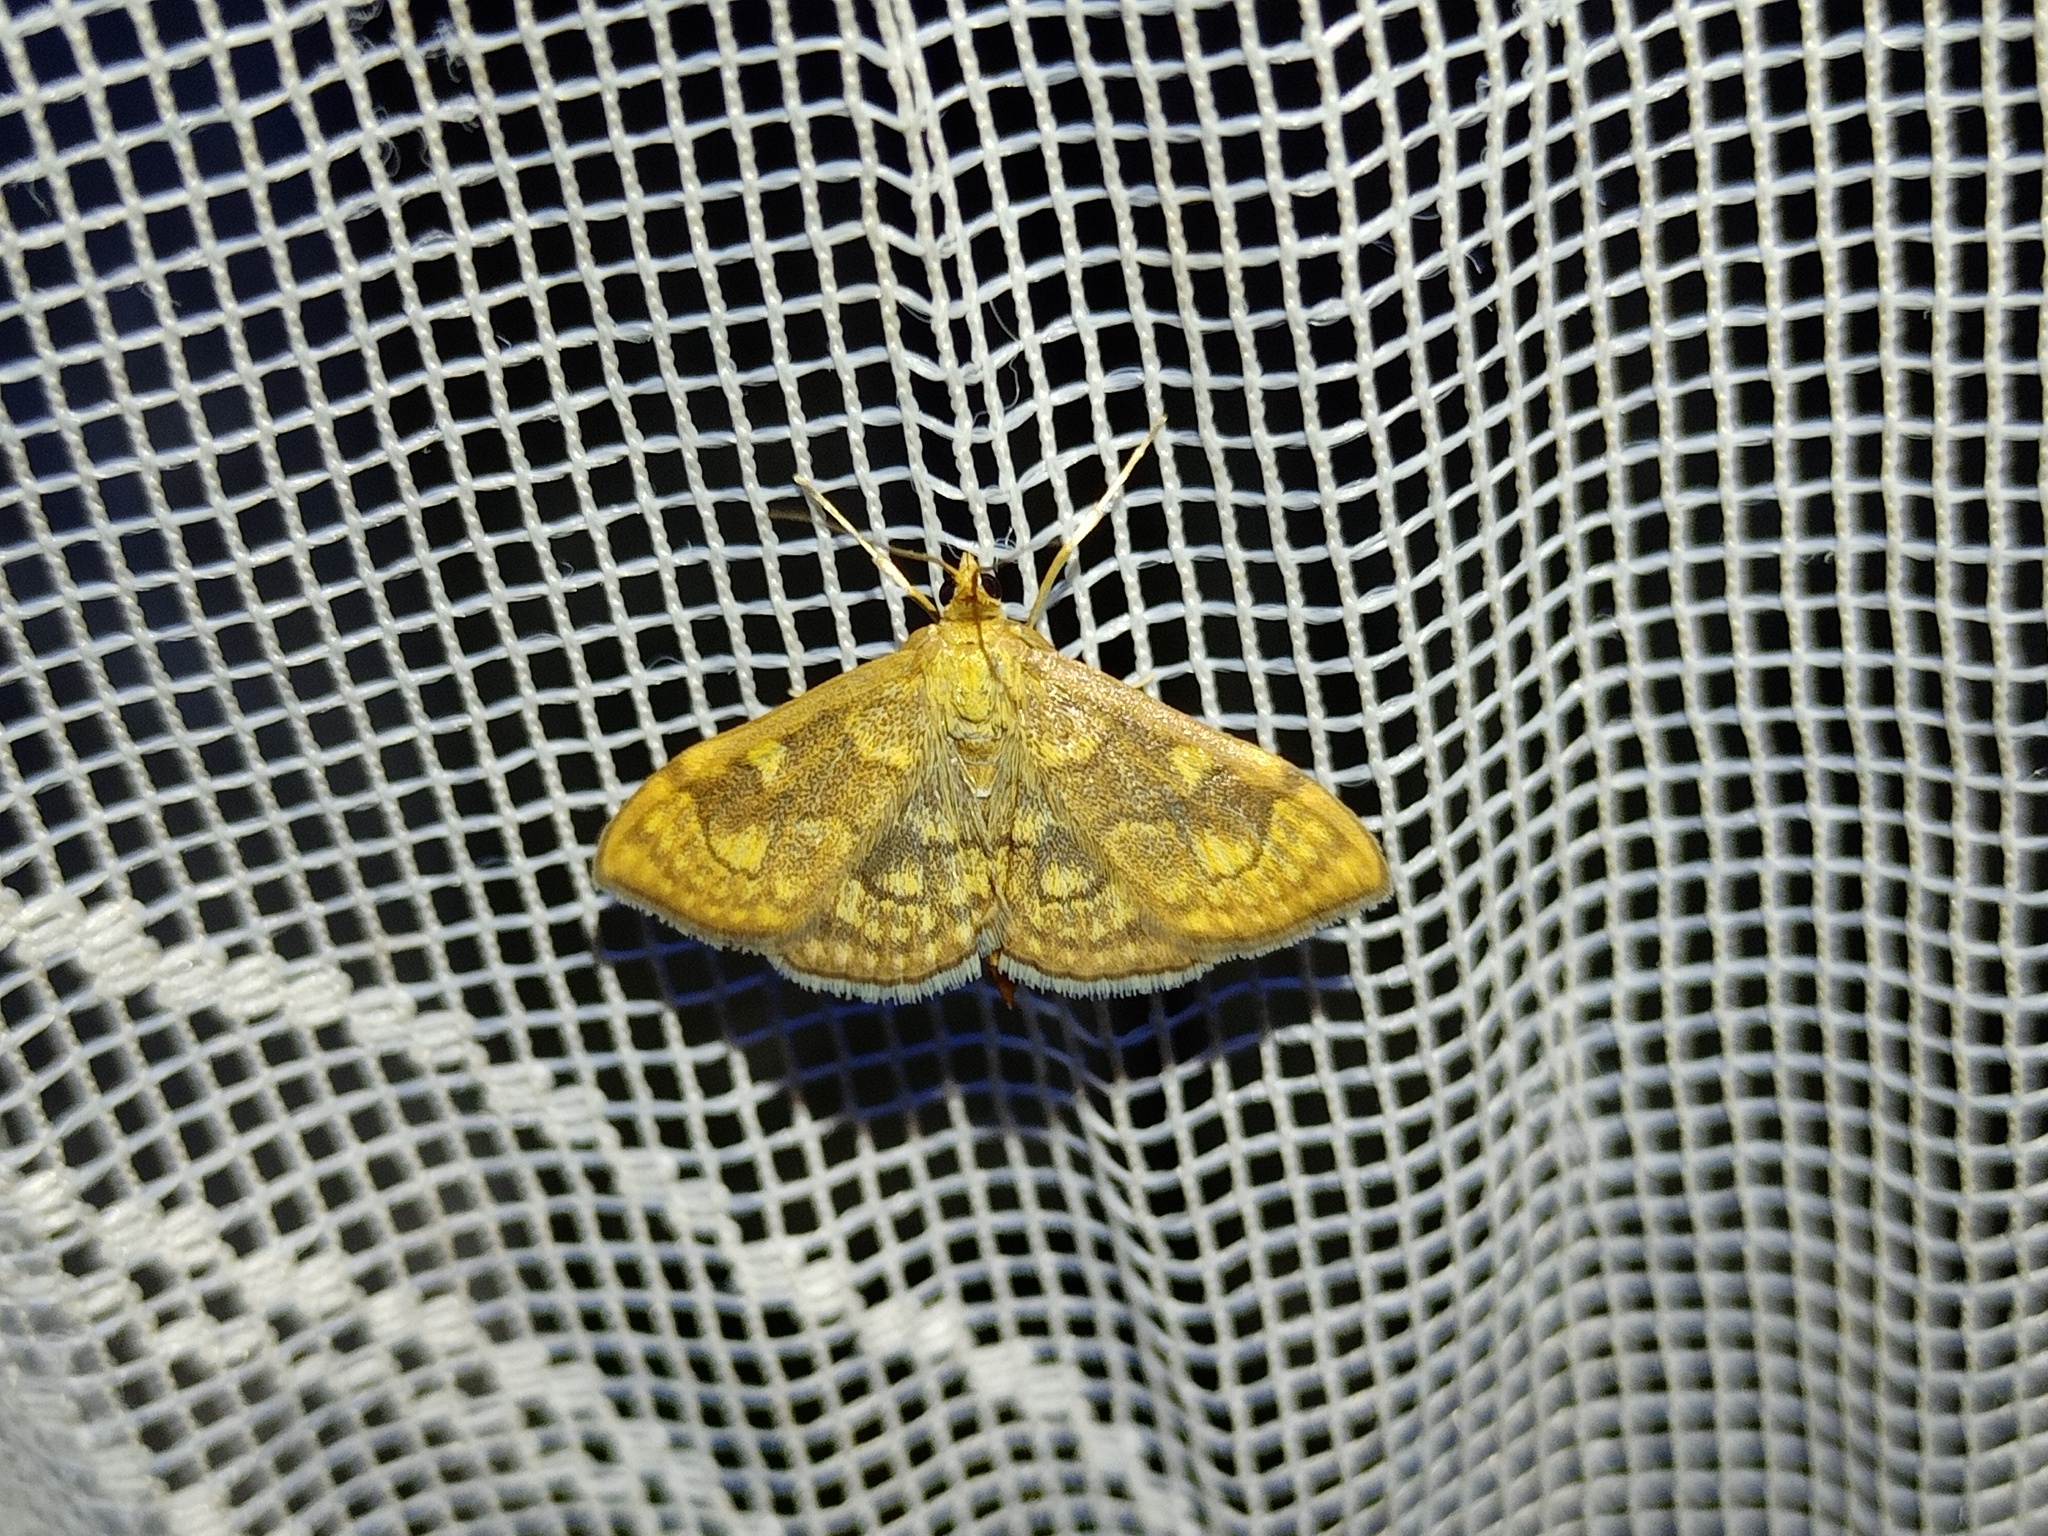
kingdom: Animalia
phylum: Arthropoda
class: Insecta
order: Lepidoptera
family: Crambidae
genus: Anania
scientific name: Anania verbascalis
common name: Golden pearl
